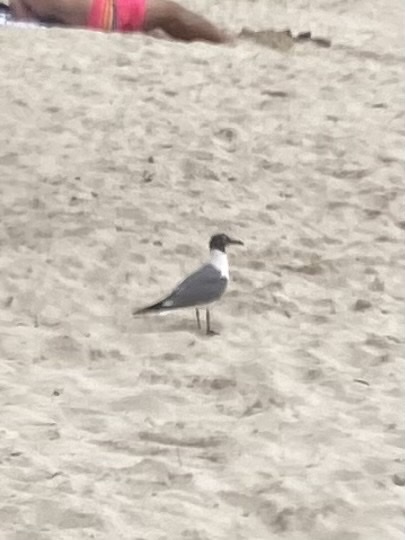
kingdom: Animalia
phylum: Chordata
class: Aves
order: Charadriiformes
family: Laridae
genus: Leucophaeus
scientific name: Leucophaeus atricilla
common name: Laughing gull
